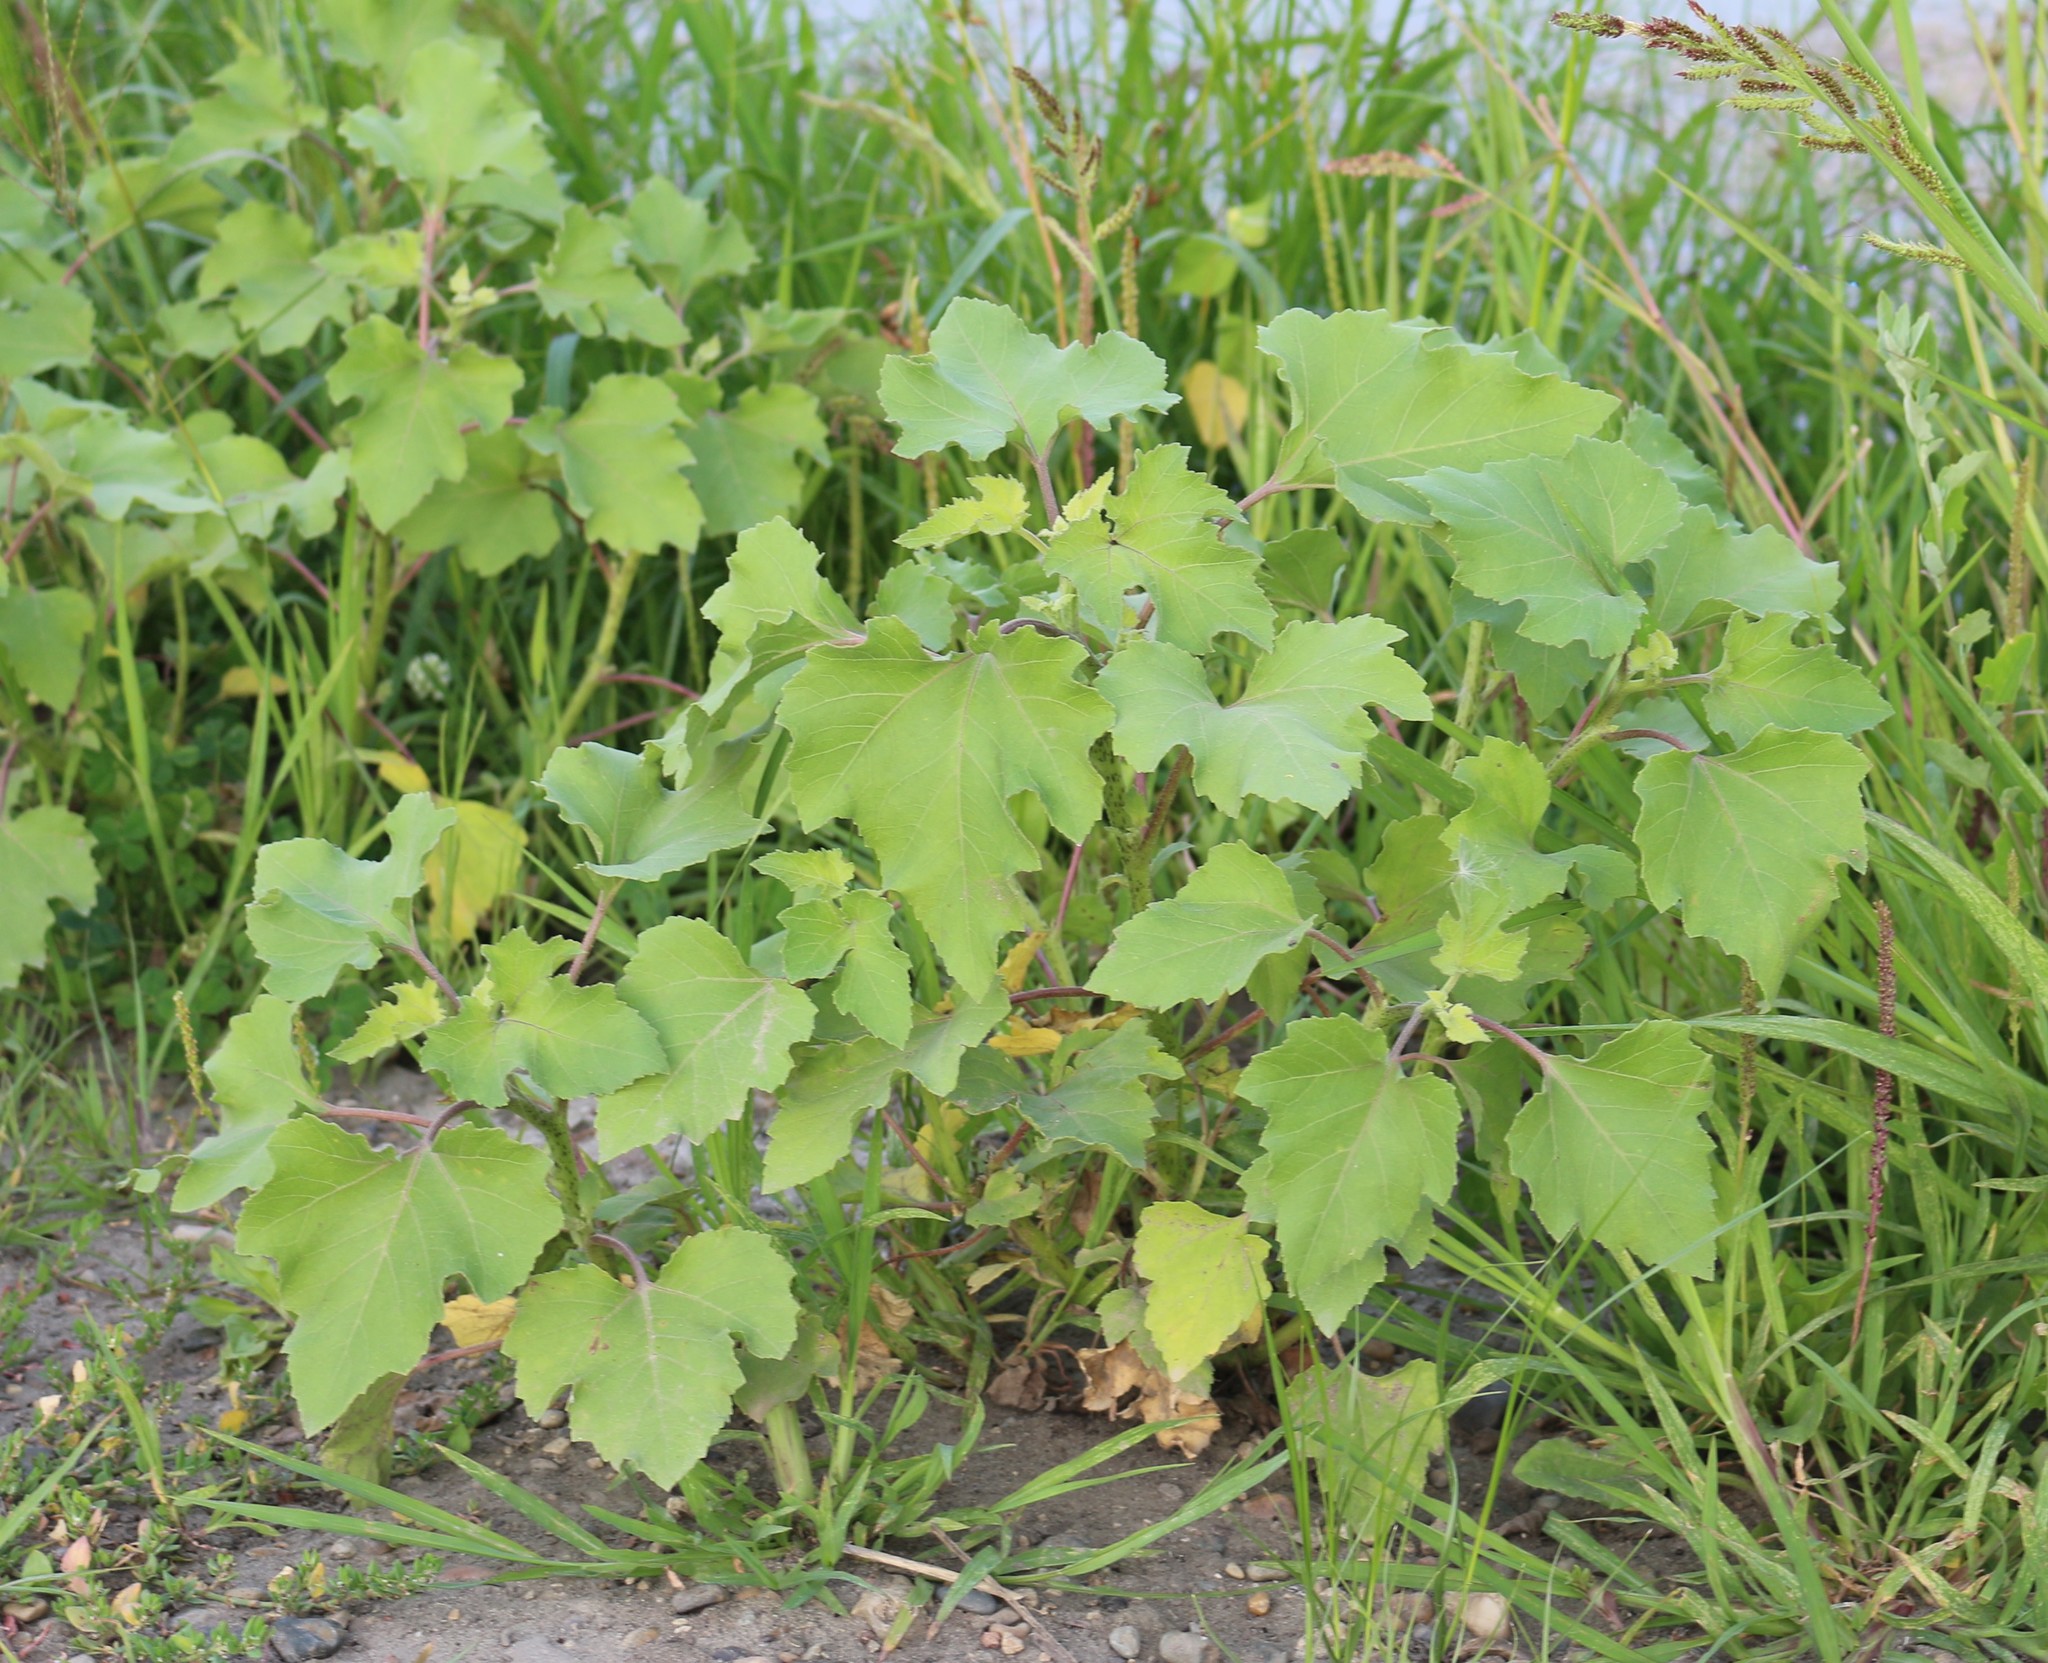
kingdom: Plantae
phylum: Tracheophyta
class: Magnoliopsida
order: Asterales
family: Asteraceae
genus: Xanthium
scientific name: Xanthium orientale
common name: Californian burr
